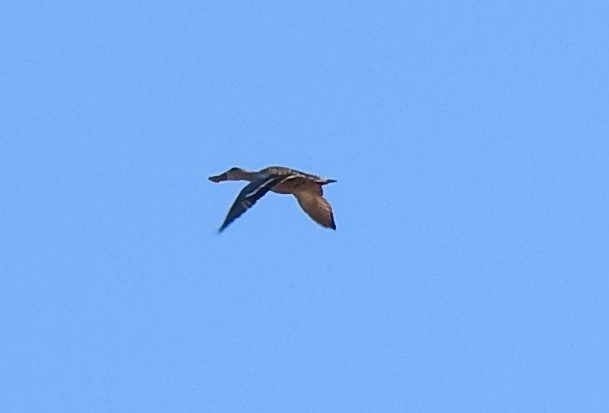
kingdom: Animalia
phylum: Chordata
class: Aves
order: Anseriformes
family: Anatidae
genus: Spatula
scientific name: Spatula clypeata
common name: Northern shoveler
